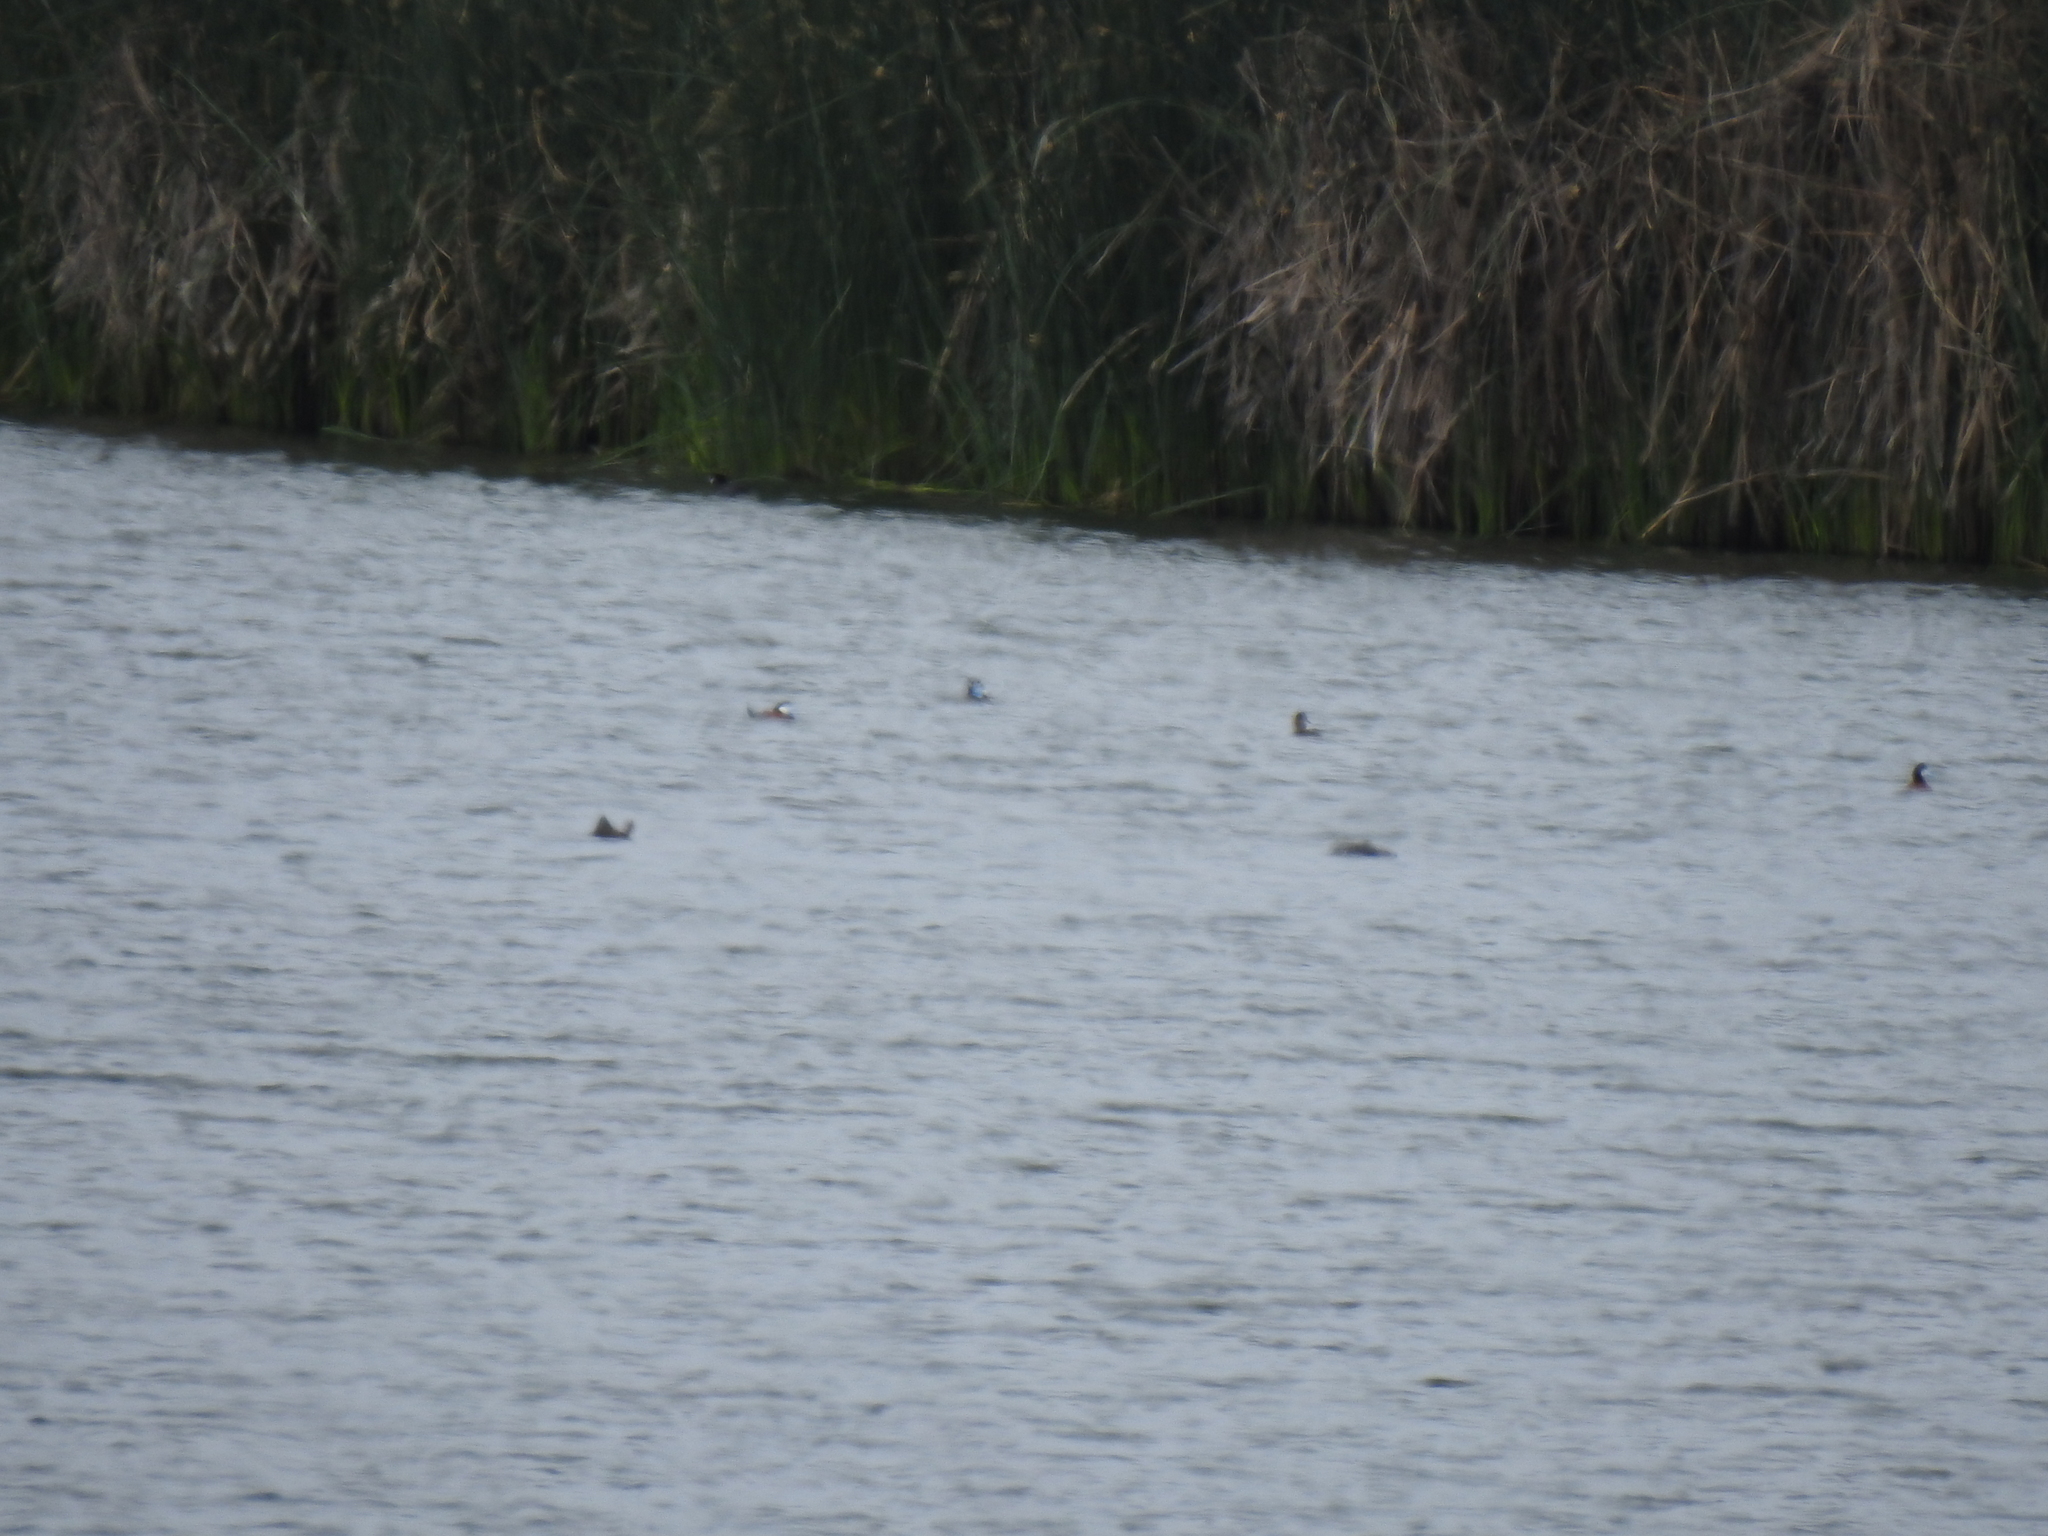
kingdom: Animalia
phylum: Chordata
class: Aves
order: Anseriformes
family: Anatidae
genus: Oxyura
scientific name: Oxyura jamaicensis
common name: Ruddy duck
